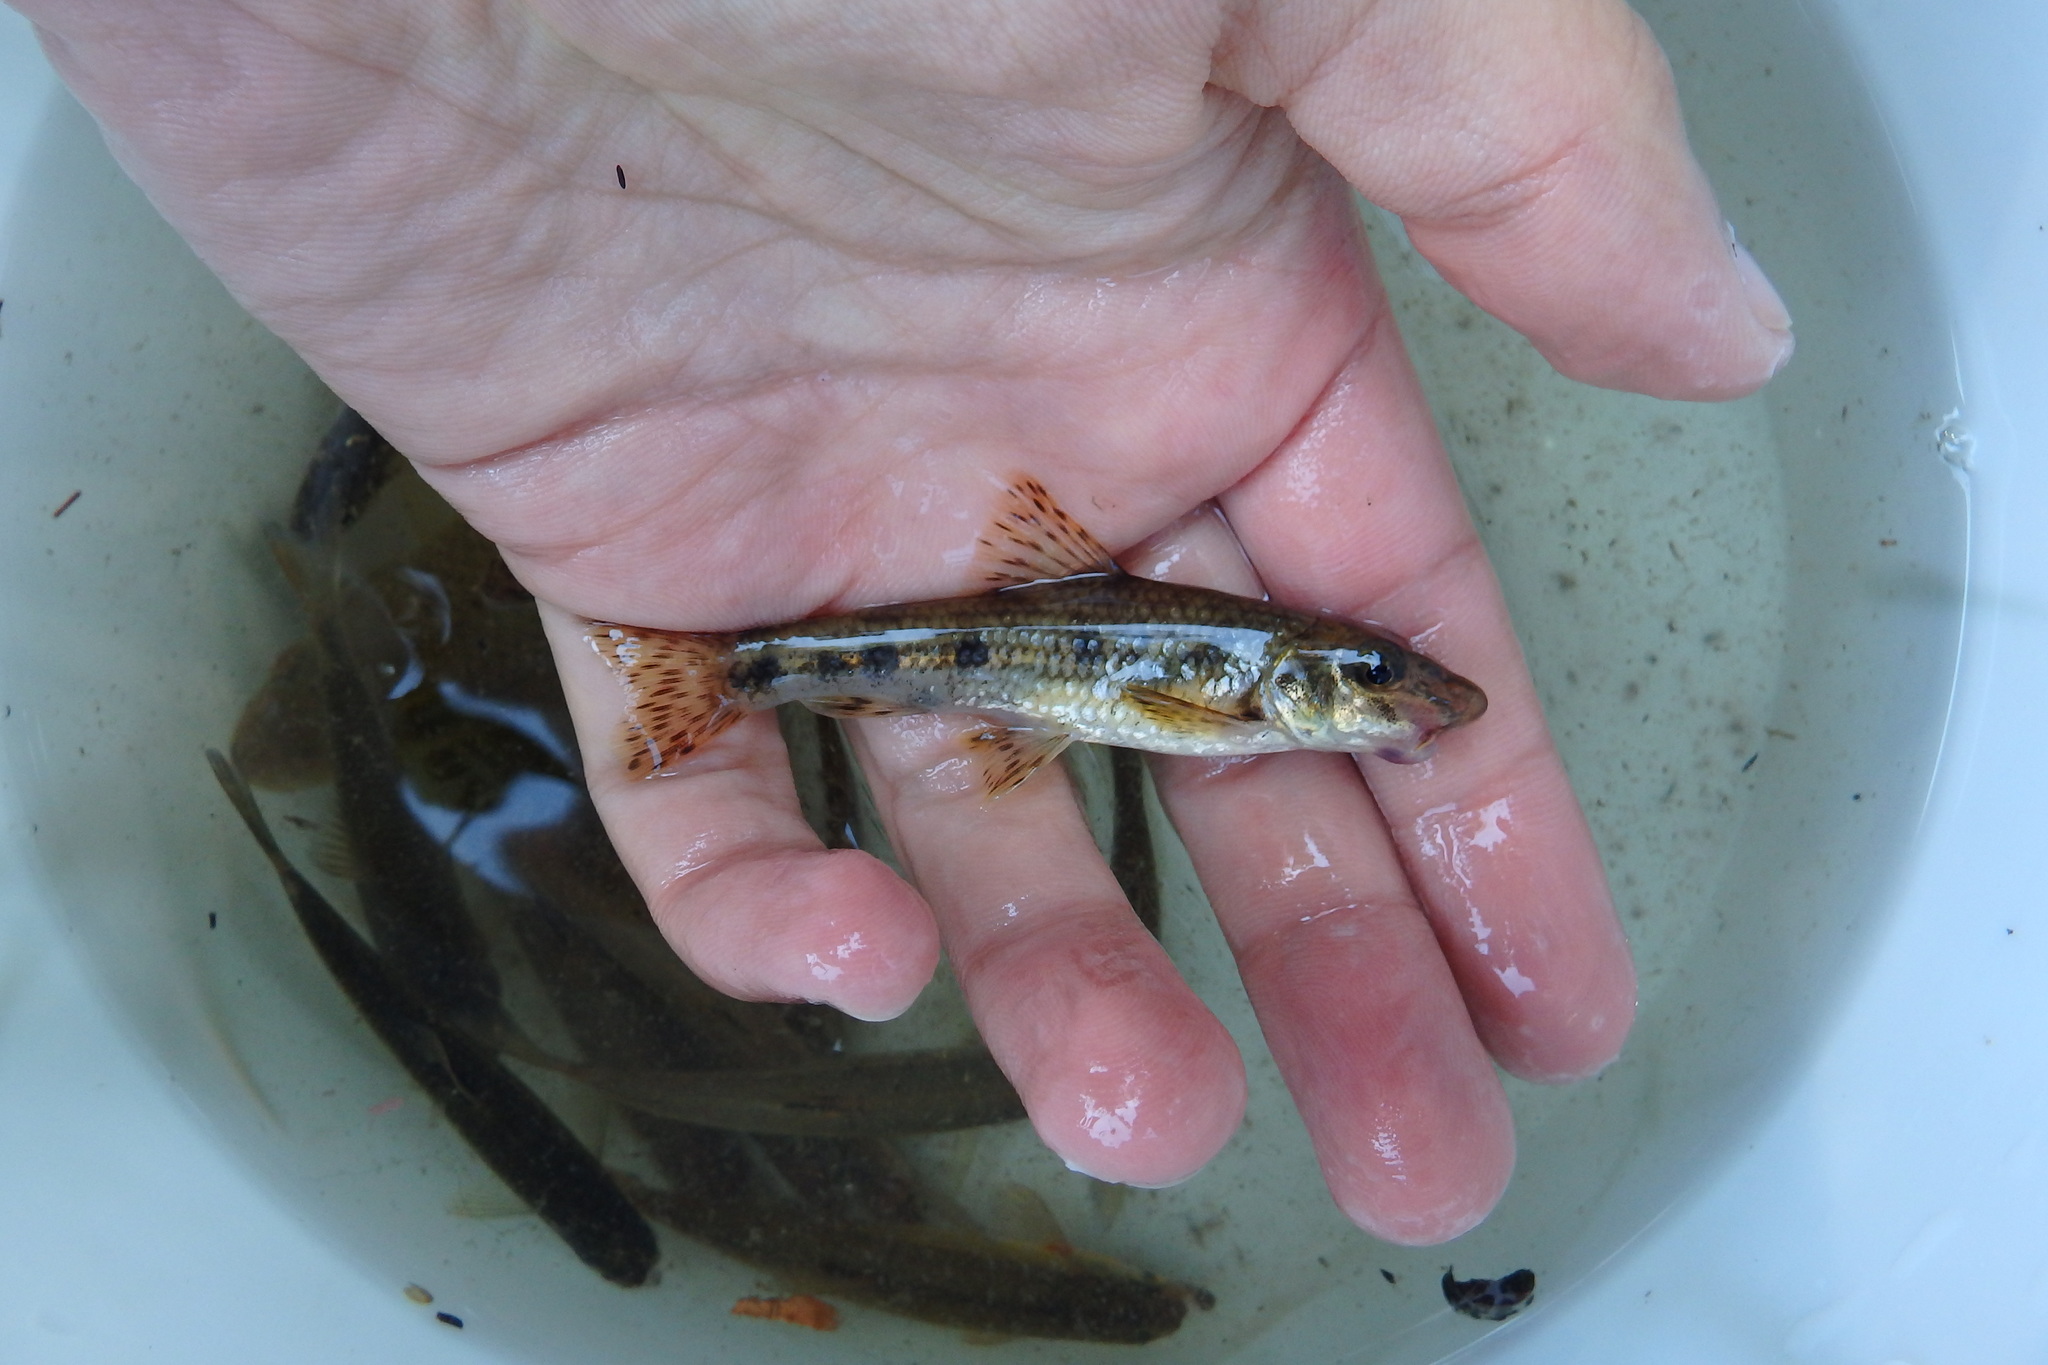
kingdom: Animalia
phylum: Chordata
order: Cypriniformes
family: Cyprinidae
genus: Gobio
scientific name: Gobio lozanoi
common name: Iberian gudgeon
